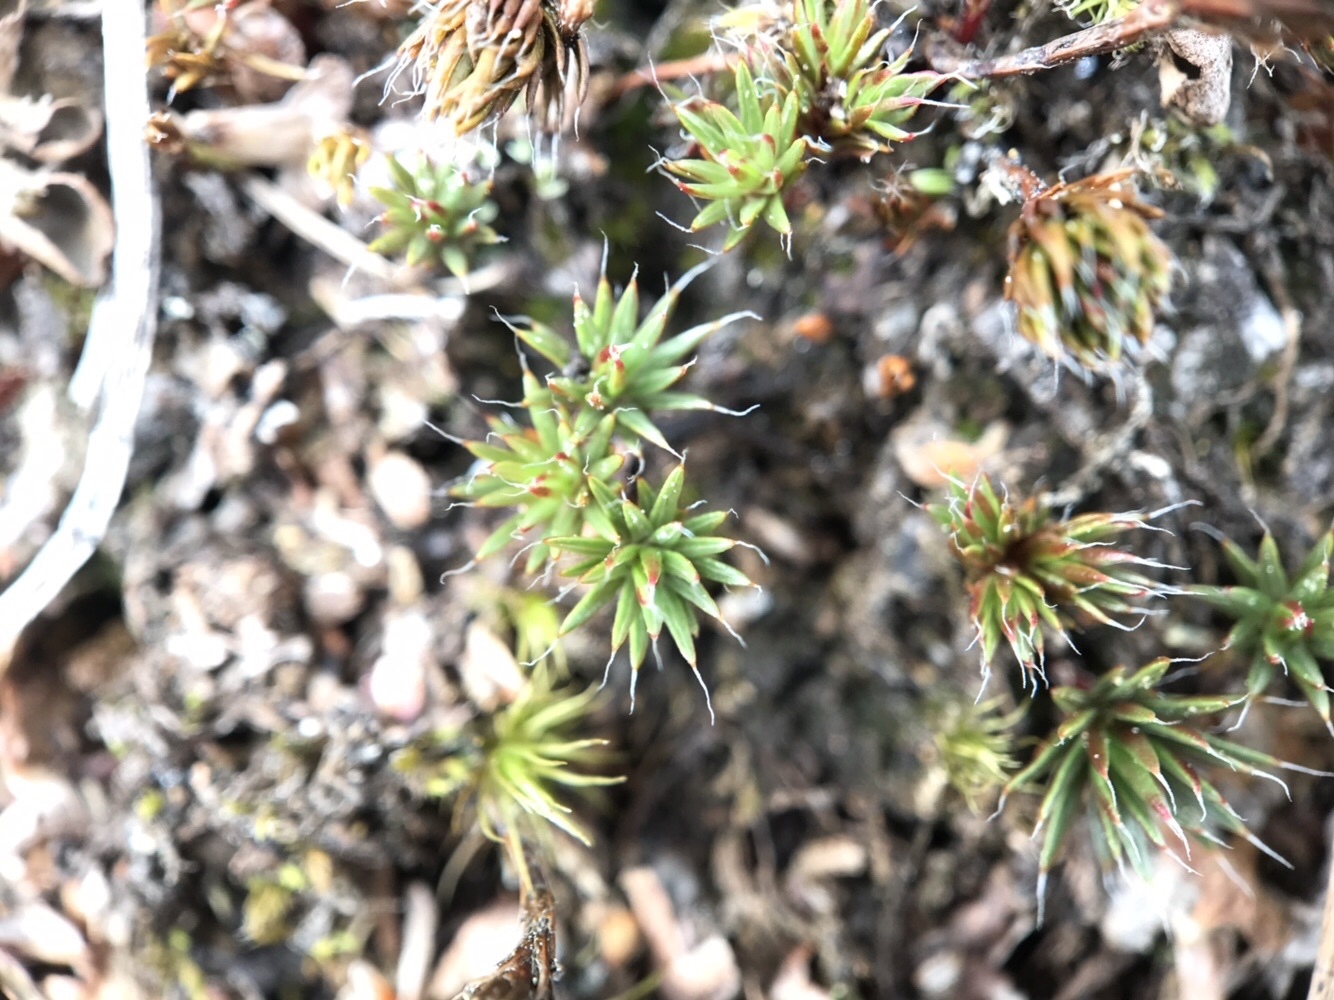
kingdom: Plantae
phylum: Bryophyta
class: Polytrichopsida
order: Polytrichales
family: Polytrichaceae
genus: Polytrichum
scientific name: Polytrichum piliferum
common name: Bristly haircap
